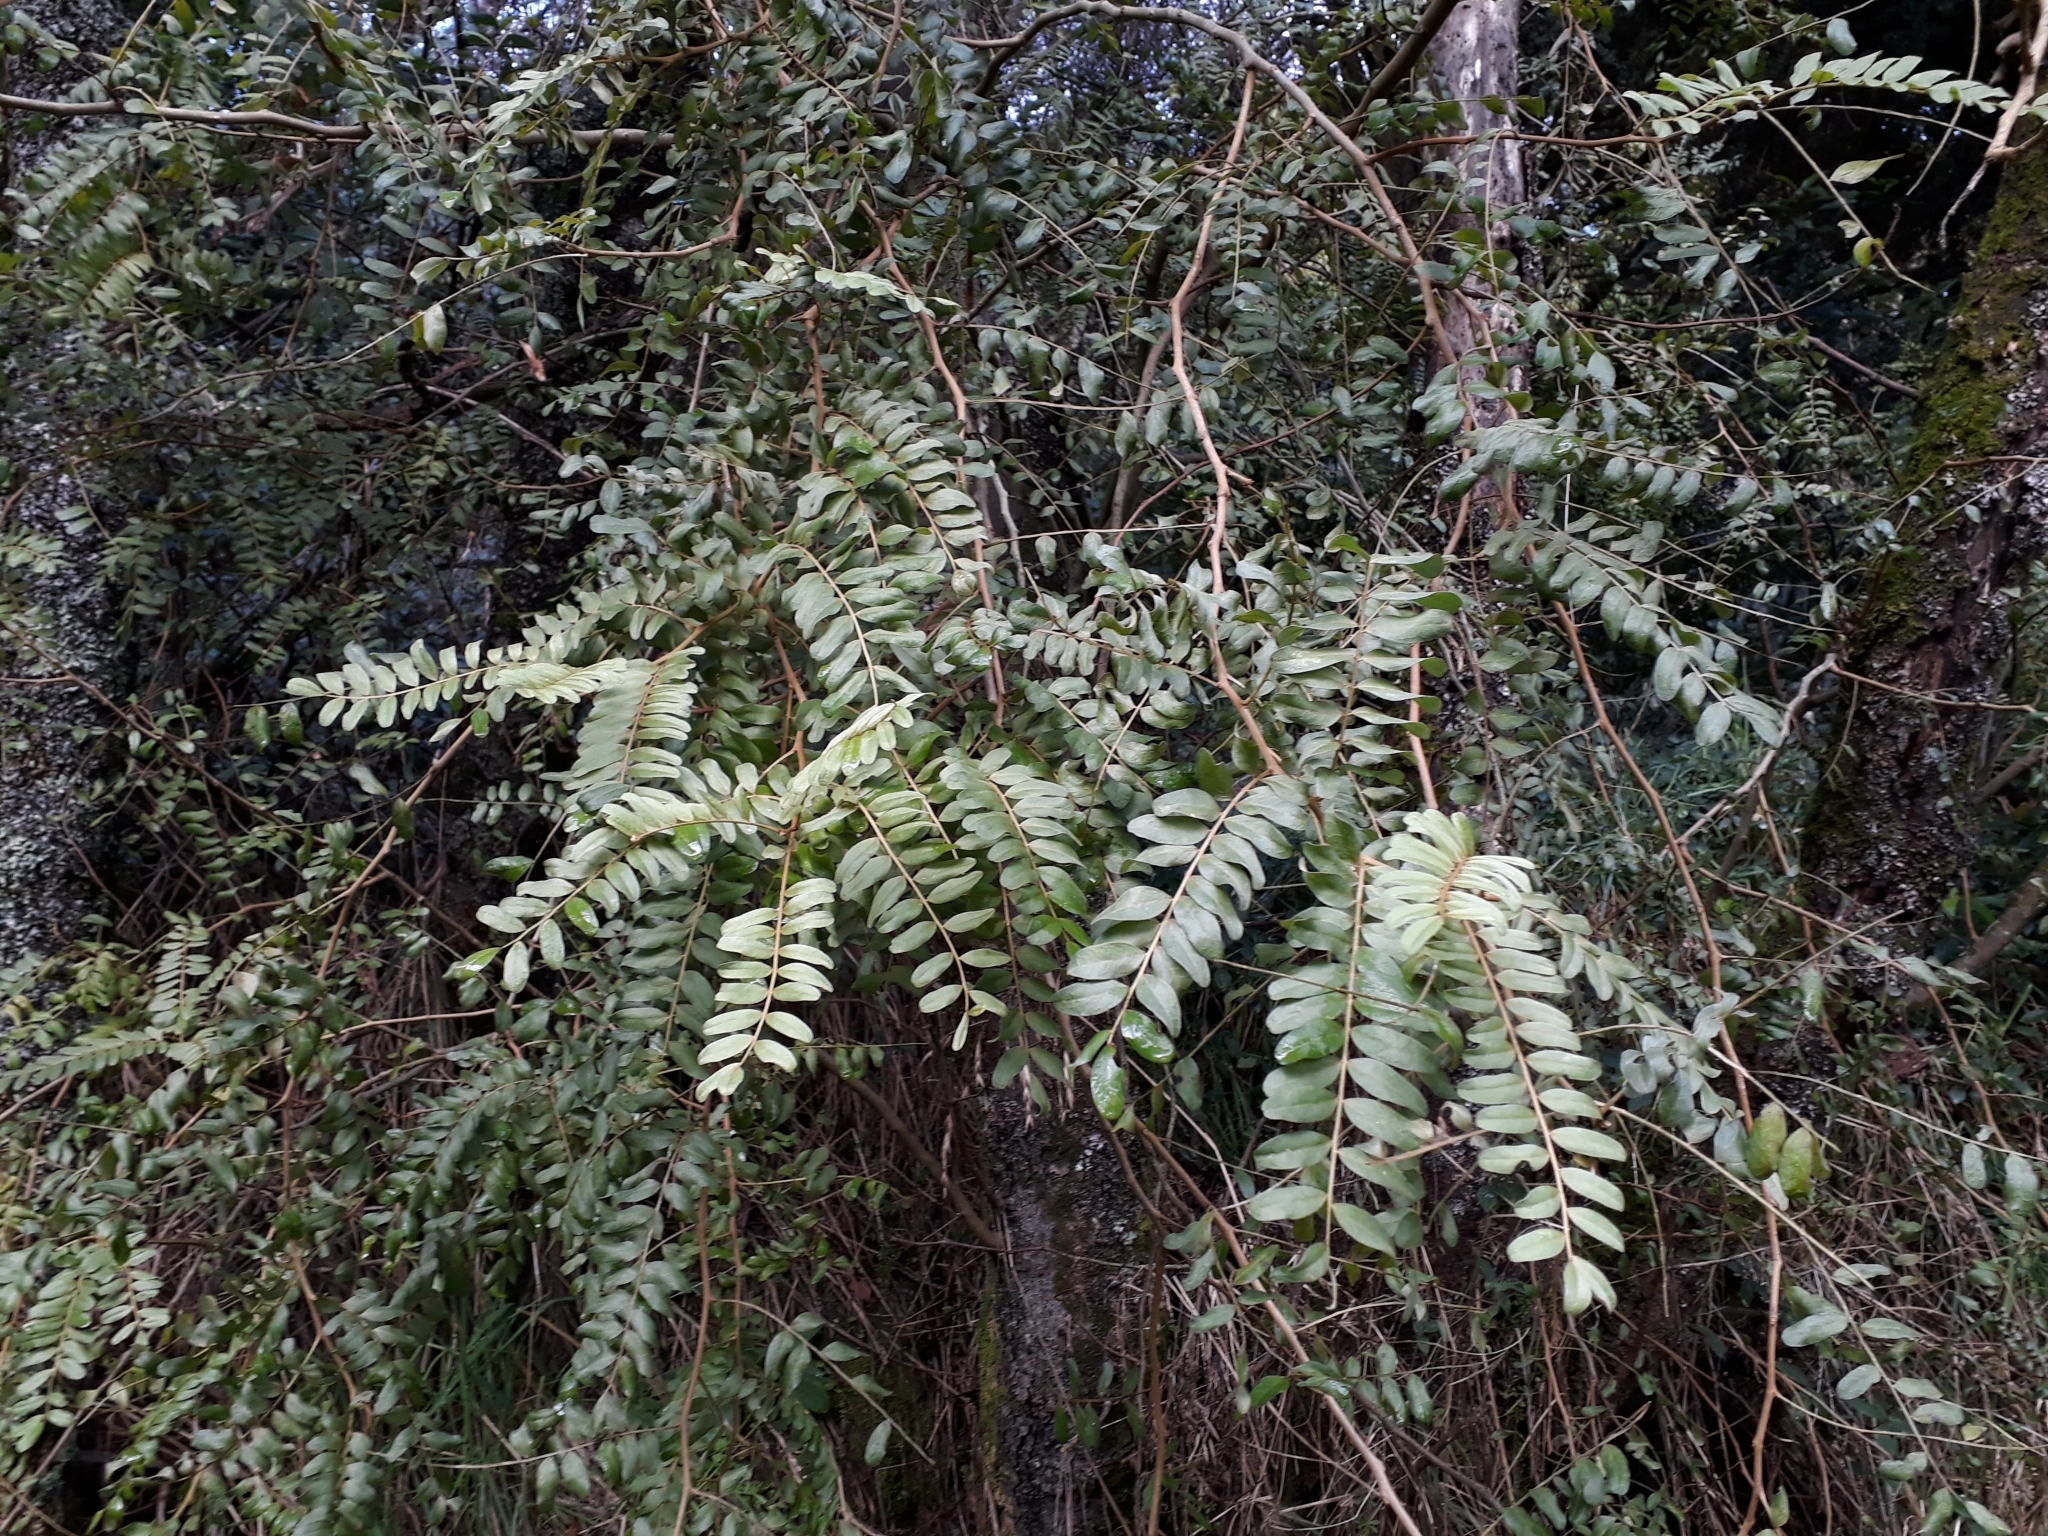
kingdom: Plantae
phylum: Tracheophyta
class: Magnoliopsida
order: Fabales
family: Fabaceae
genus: Sophora
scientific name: Sophora tetraptera
